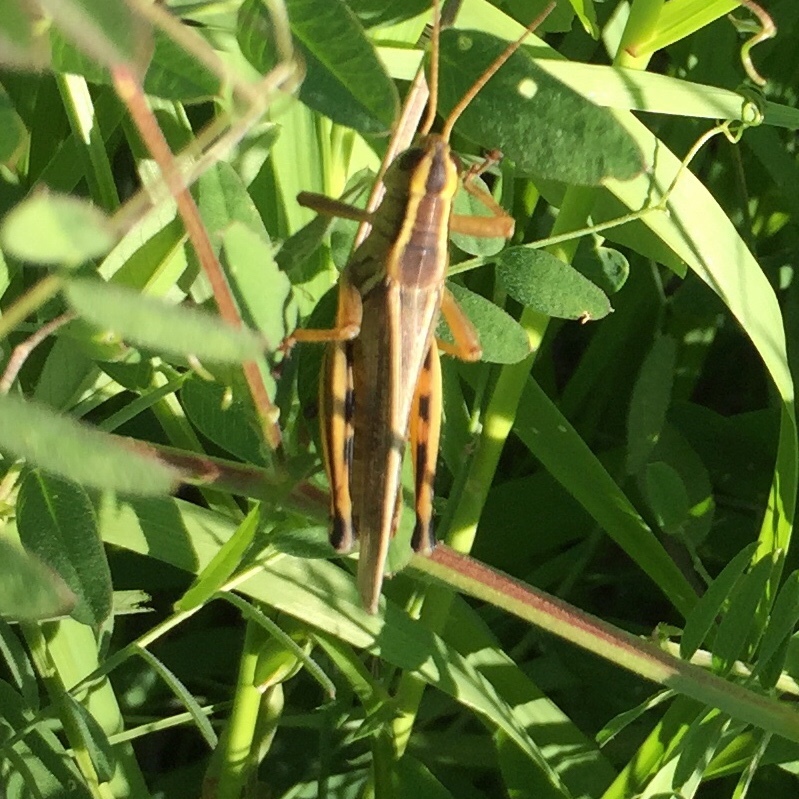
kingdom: Animalia
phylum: Arthropoda
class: Insecta
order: Orthoptera
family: Acrididae
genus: Melanoplus
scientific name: Melanoplus bivittatus
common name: Two-striped grasshopper
